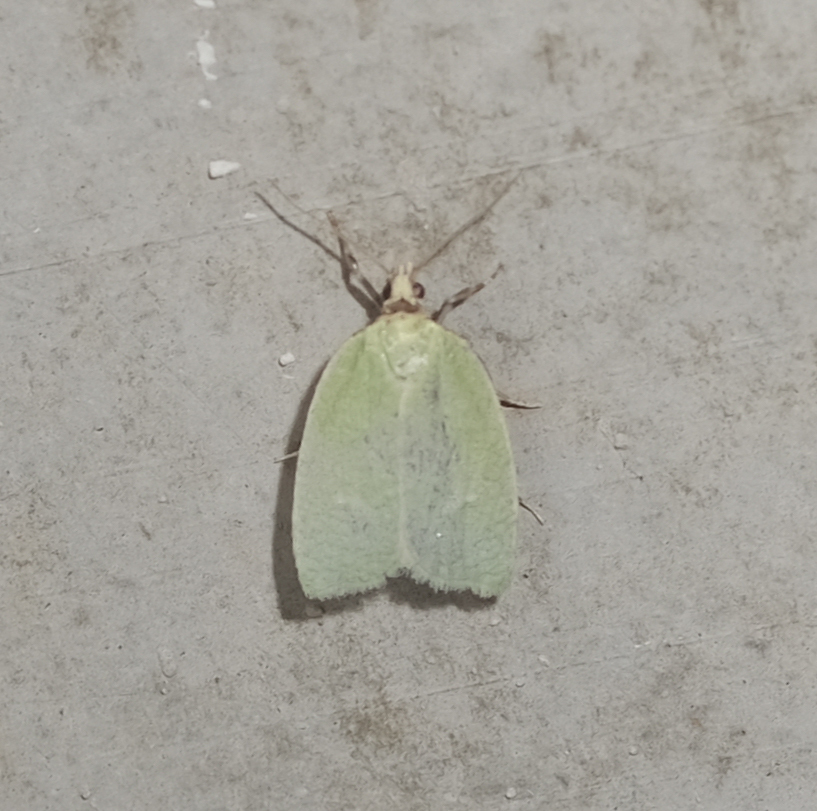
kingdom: Animalia
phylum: Arthropoda
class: Insecta
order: Lepidoptera
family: Tortricidae
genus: Tortrix
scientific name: Tortrix viridana
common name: Green oak tortrix
